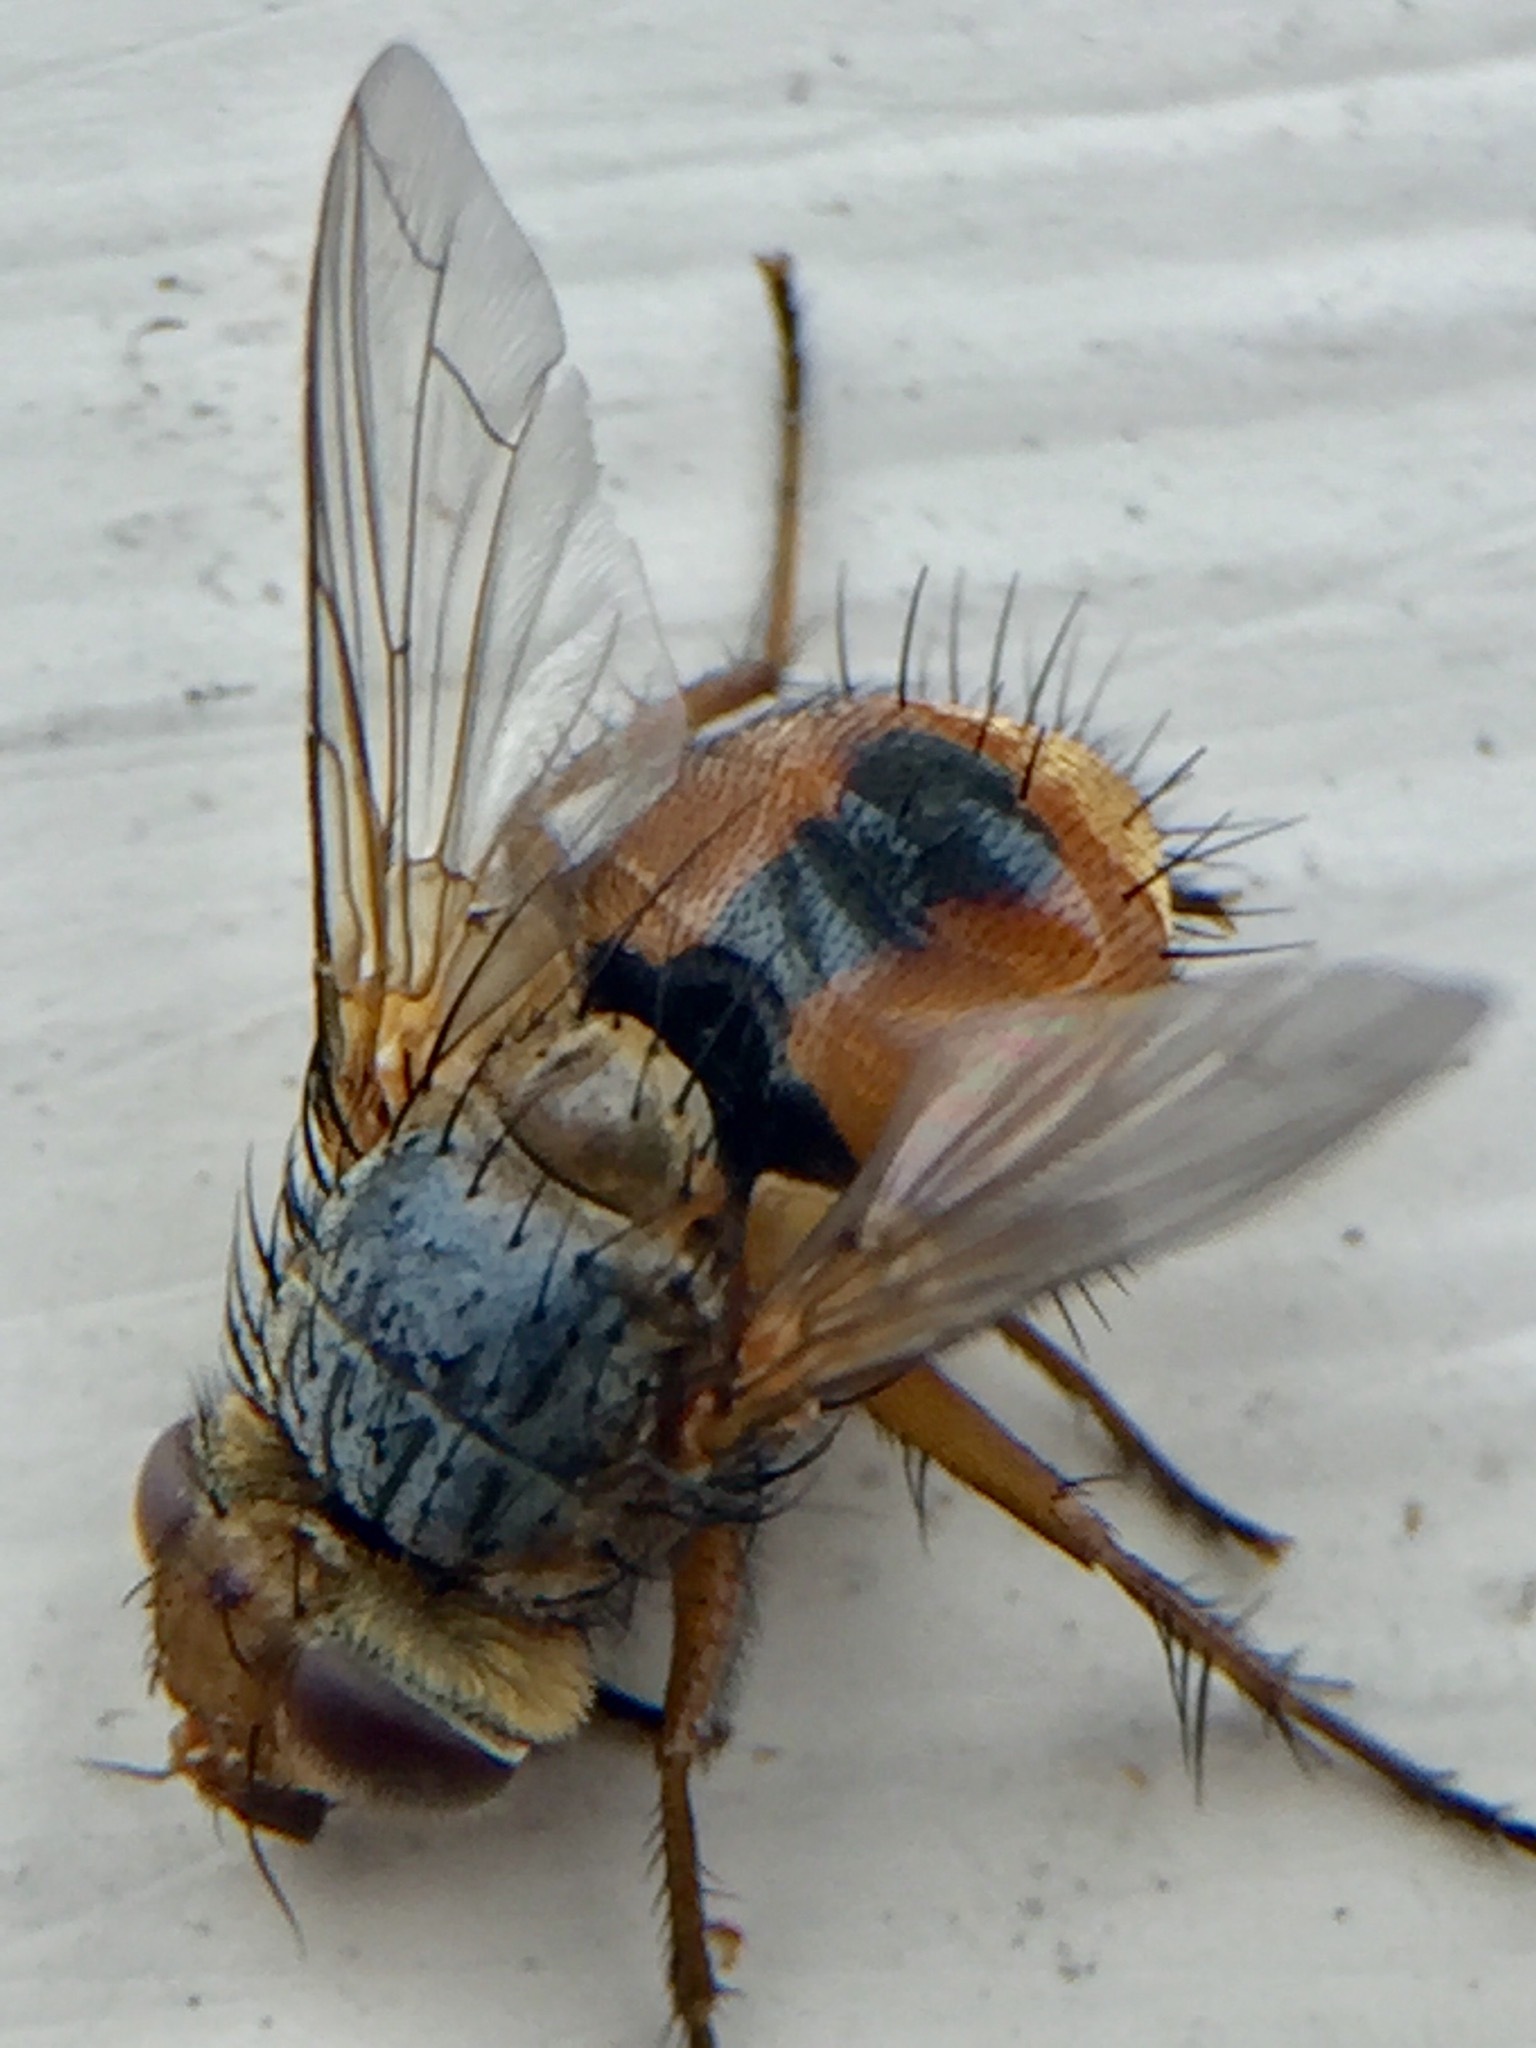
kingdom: Animalia
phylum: Arthropoda
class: Insecta
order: Diptera
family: Tachinidae
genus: Chaetophthalmus
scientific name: Chaetophthalmus bicolor
